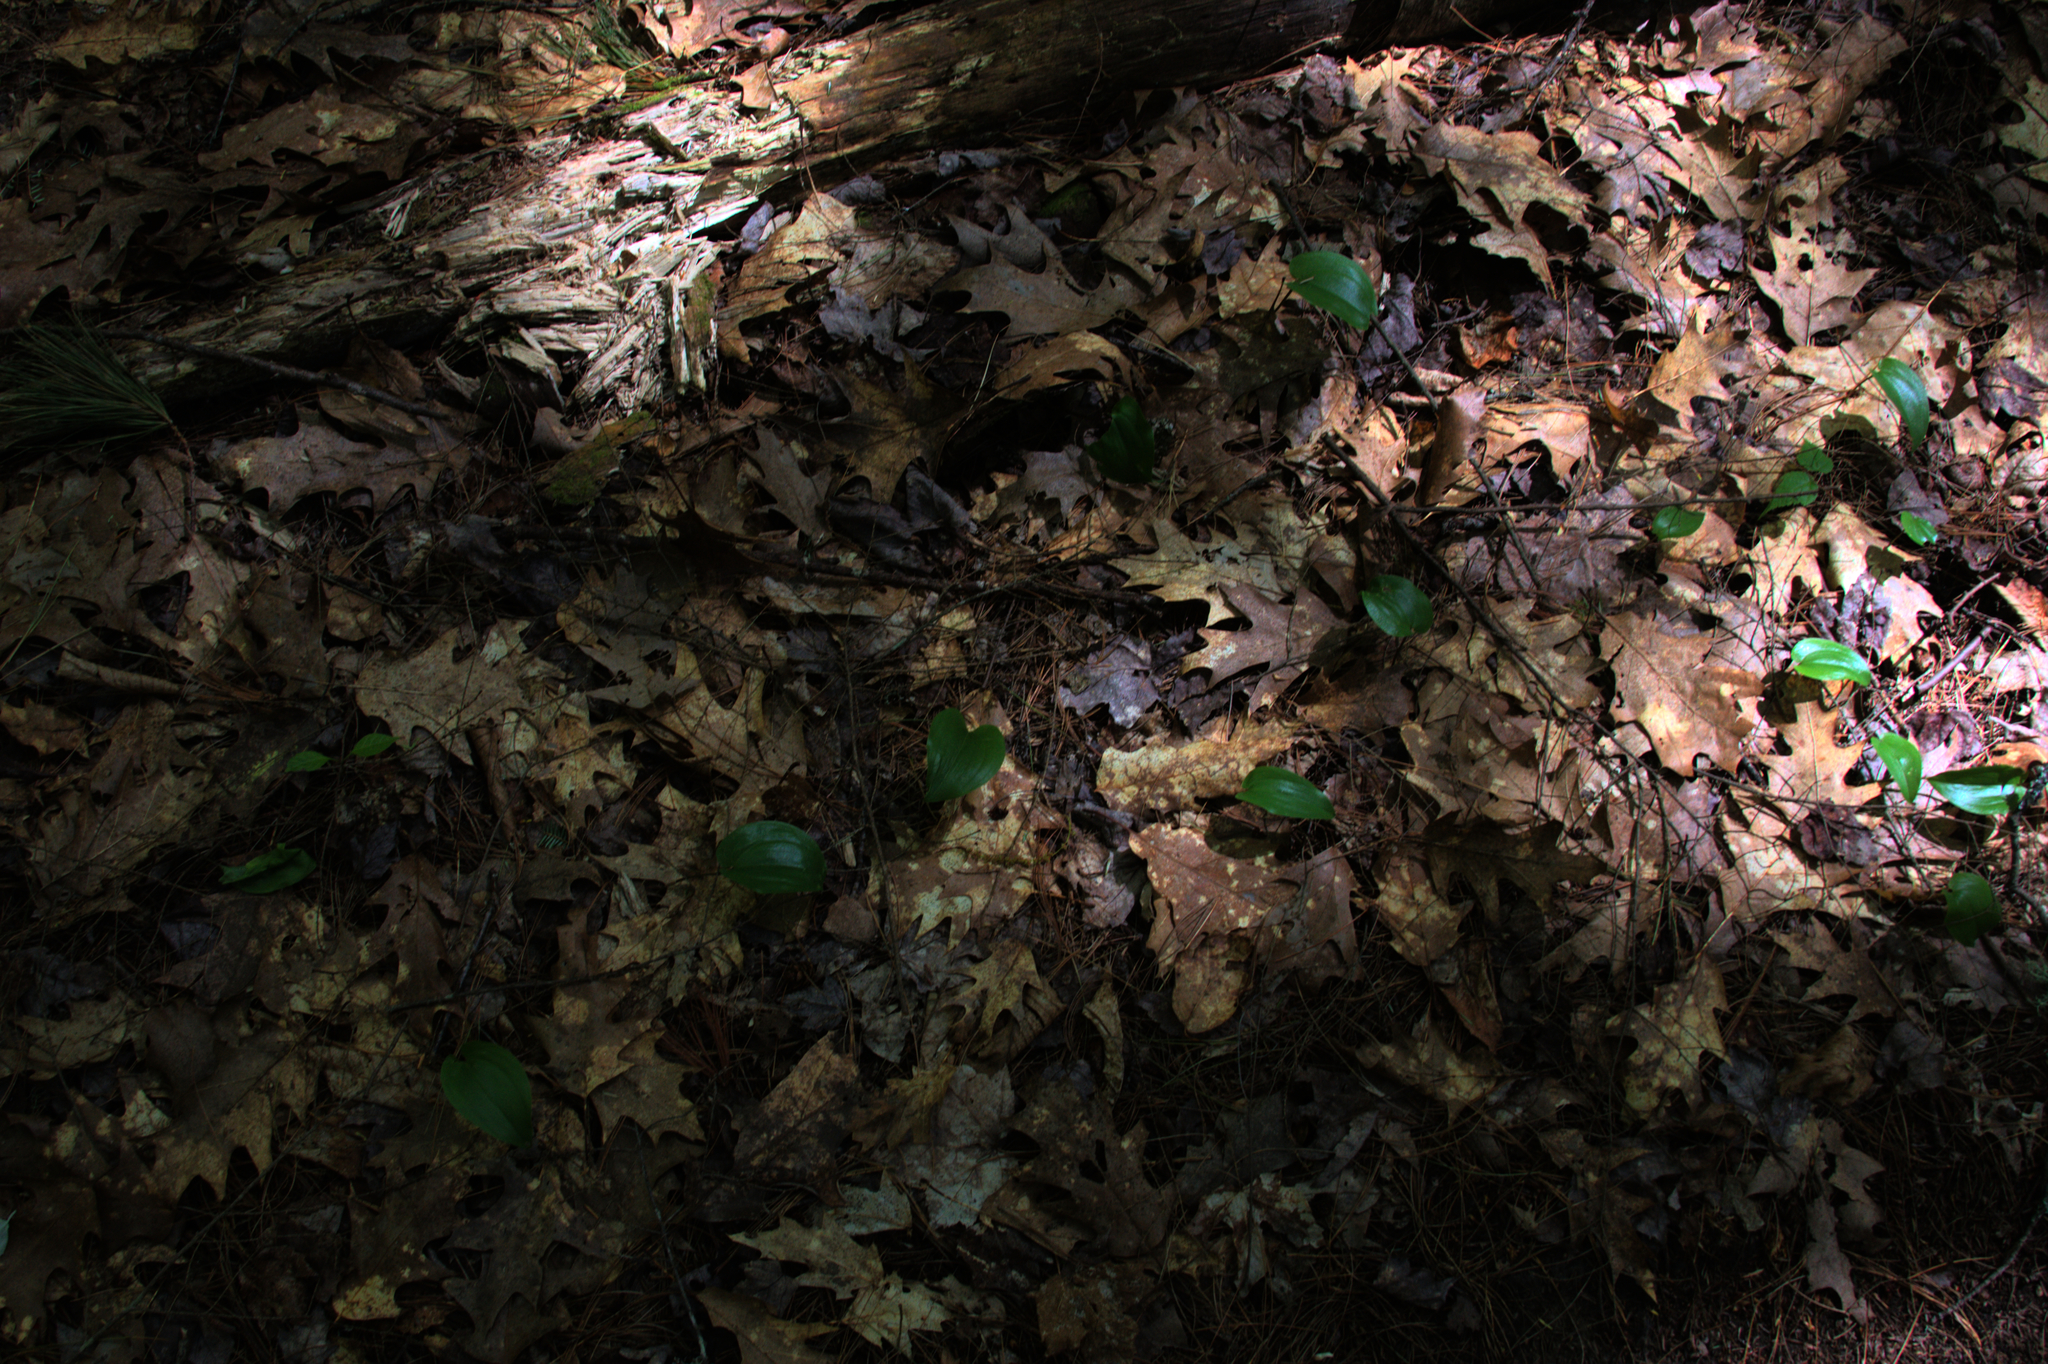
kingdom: Plantae
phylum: Tracheophyta
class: Liliopsida
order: Asparagales
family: Asparagaceae
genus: Maianthemum
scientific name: Maianthemum canadense
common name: False lily-of-the-valley
